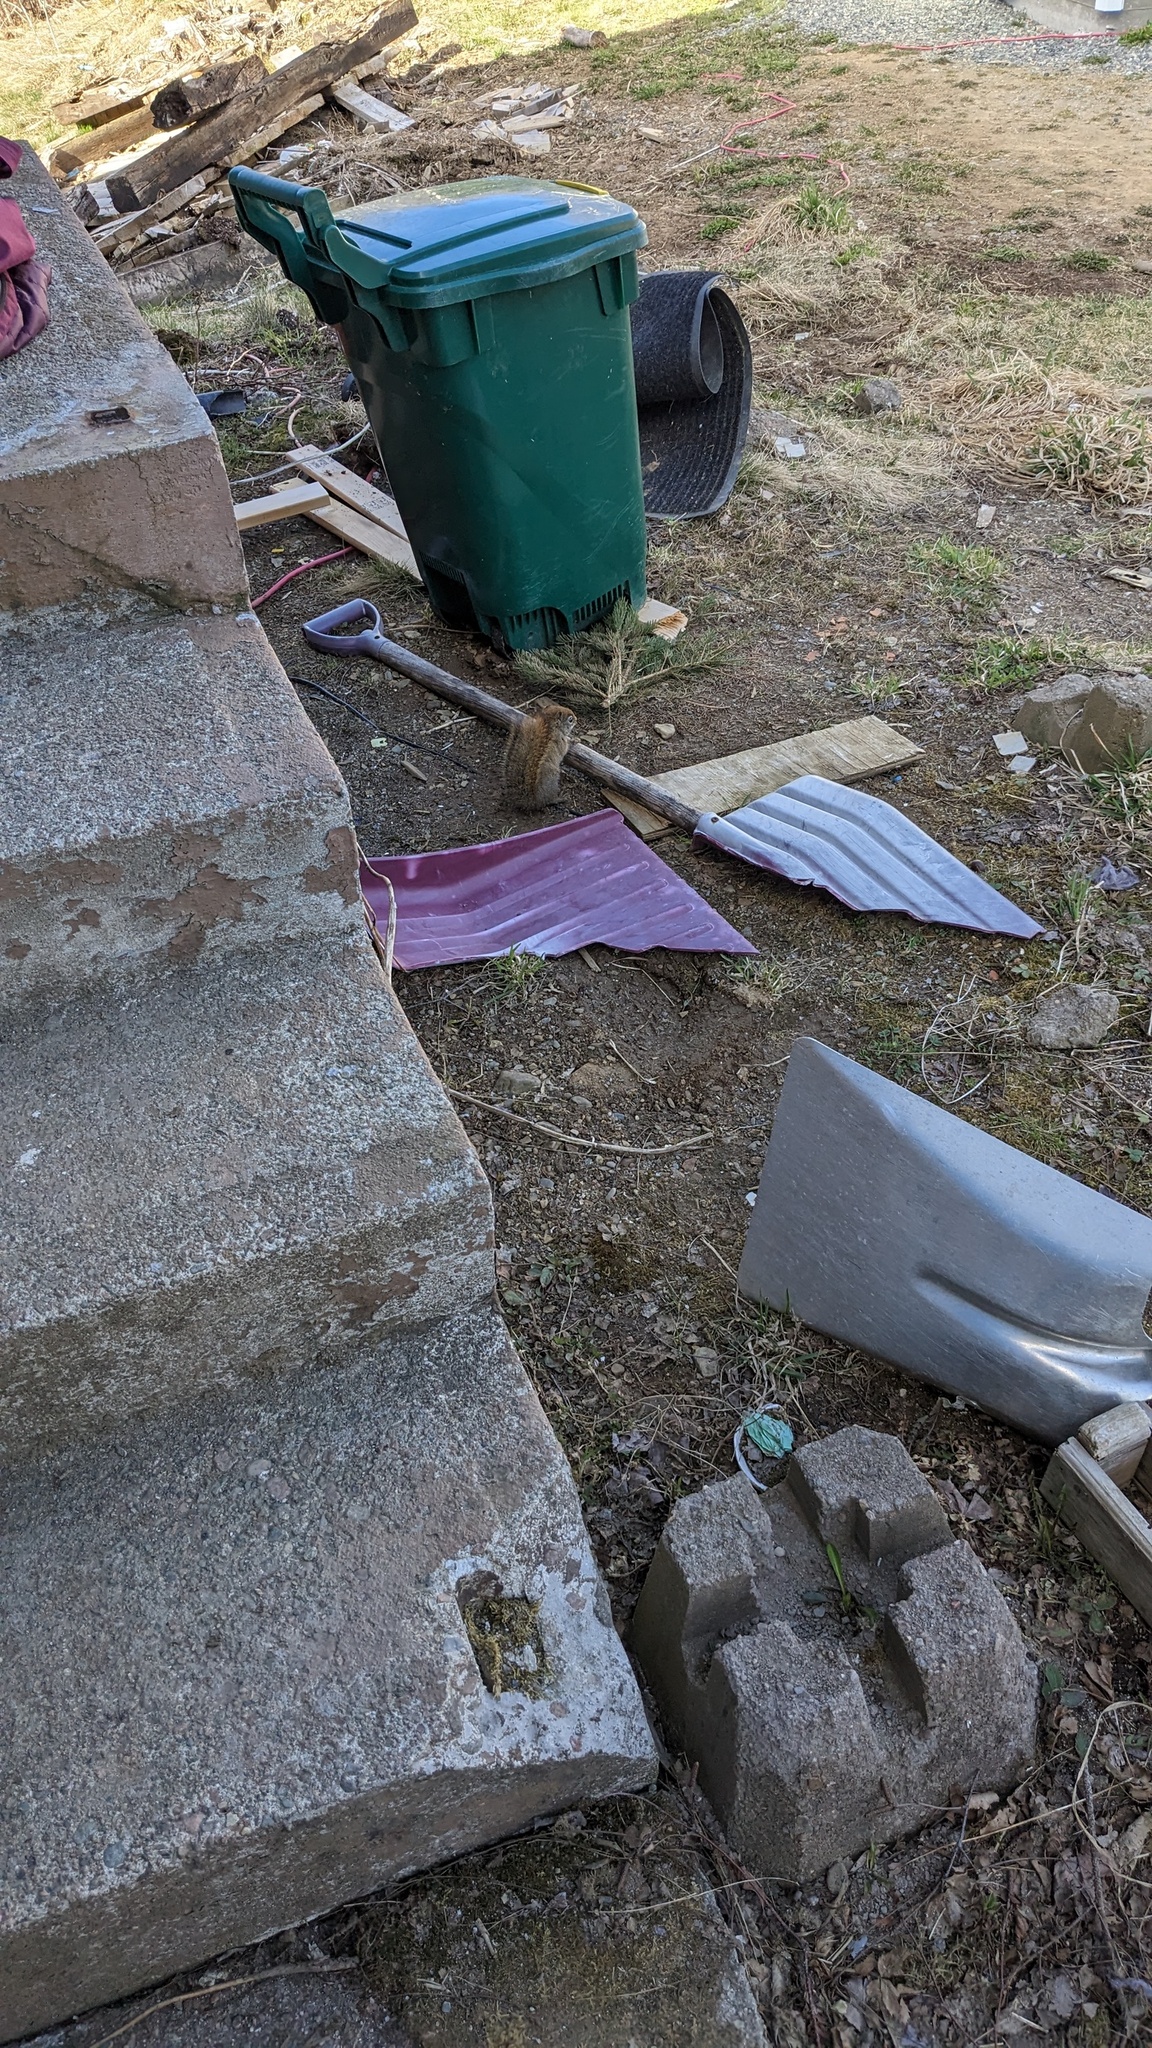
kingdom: Animalia
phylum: Chordata
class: Mammalia
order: Rodentia
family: Sciuridae
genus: Tamiasciurus
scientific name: Tamiasciurus hudsonicus
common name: Red squirrel
